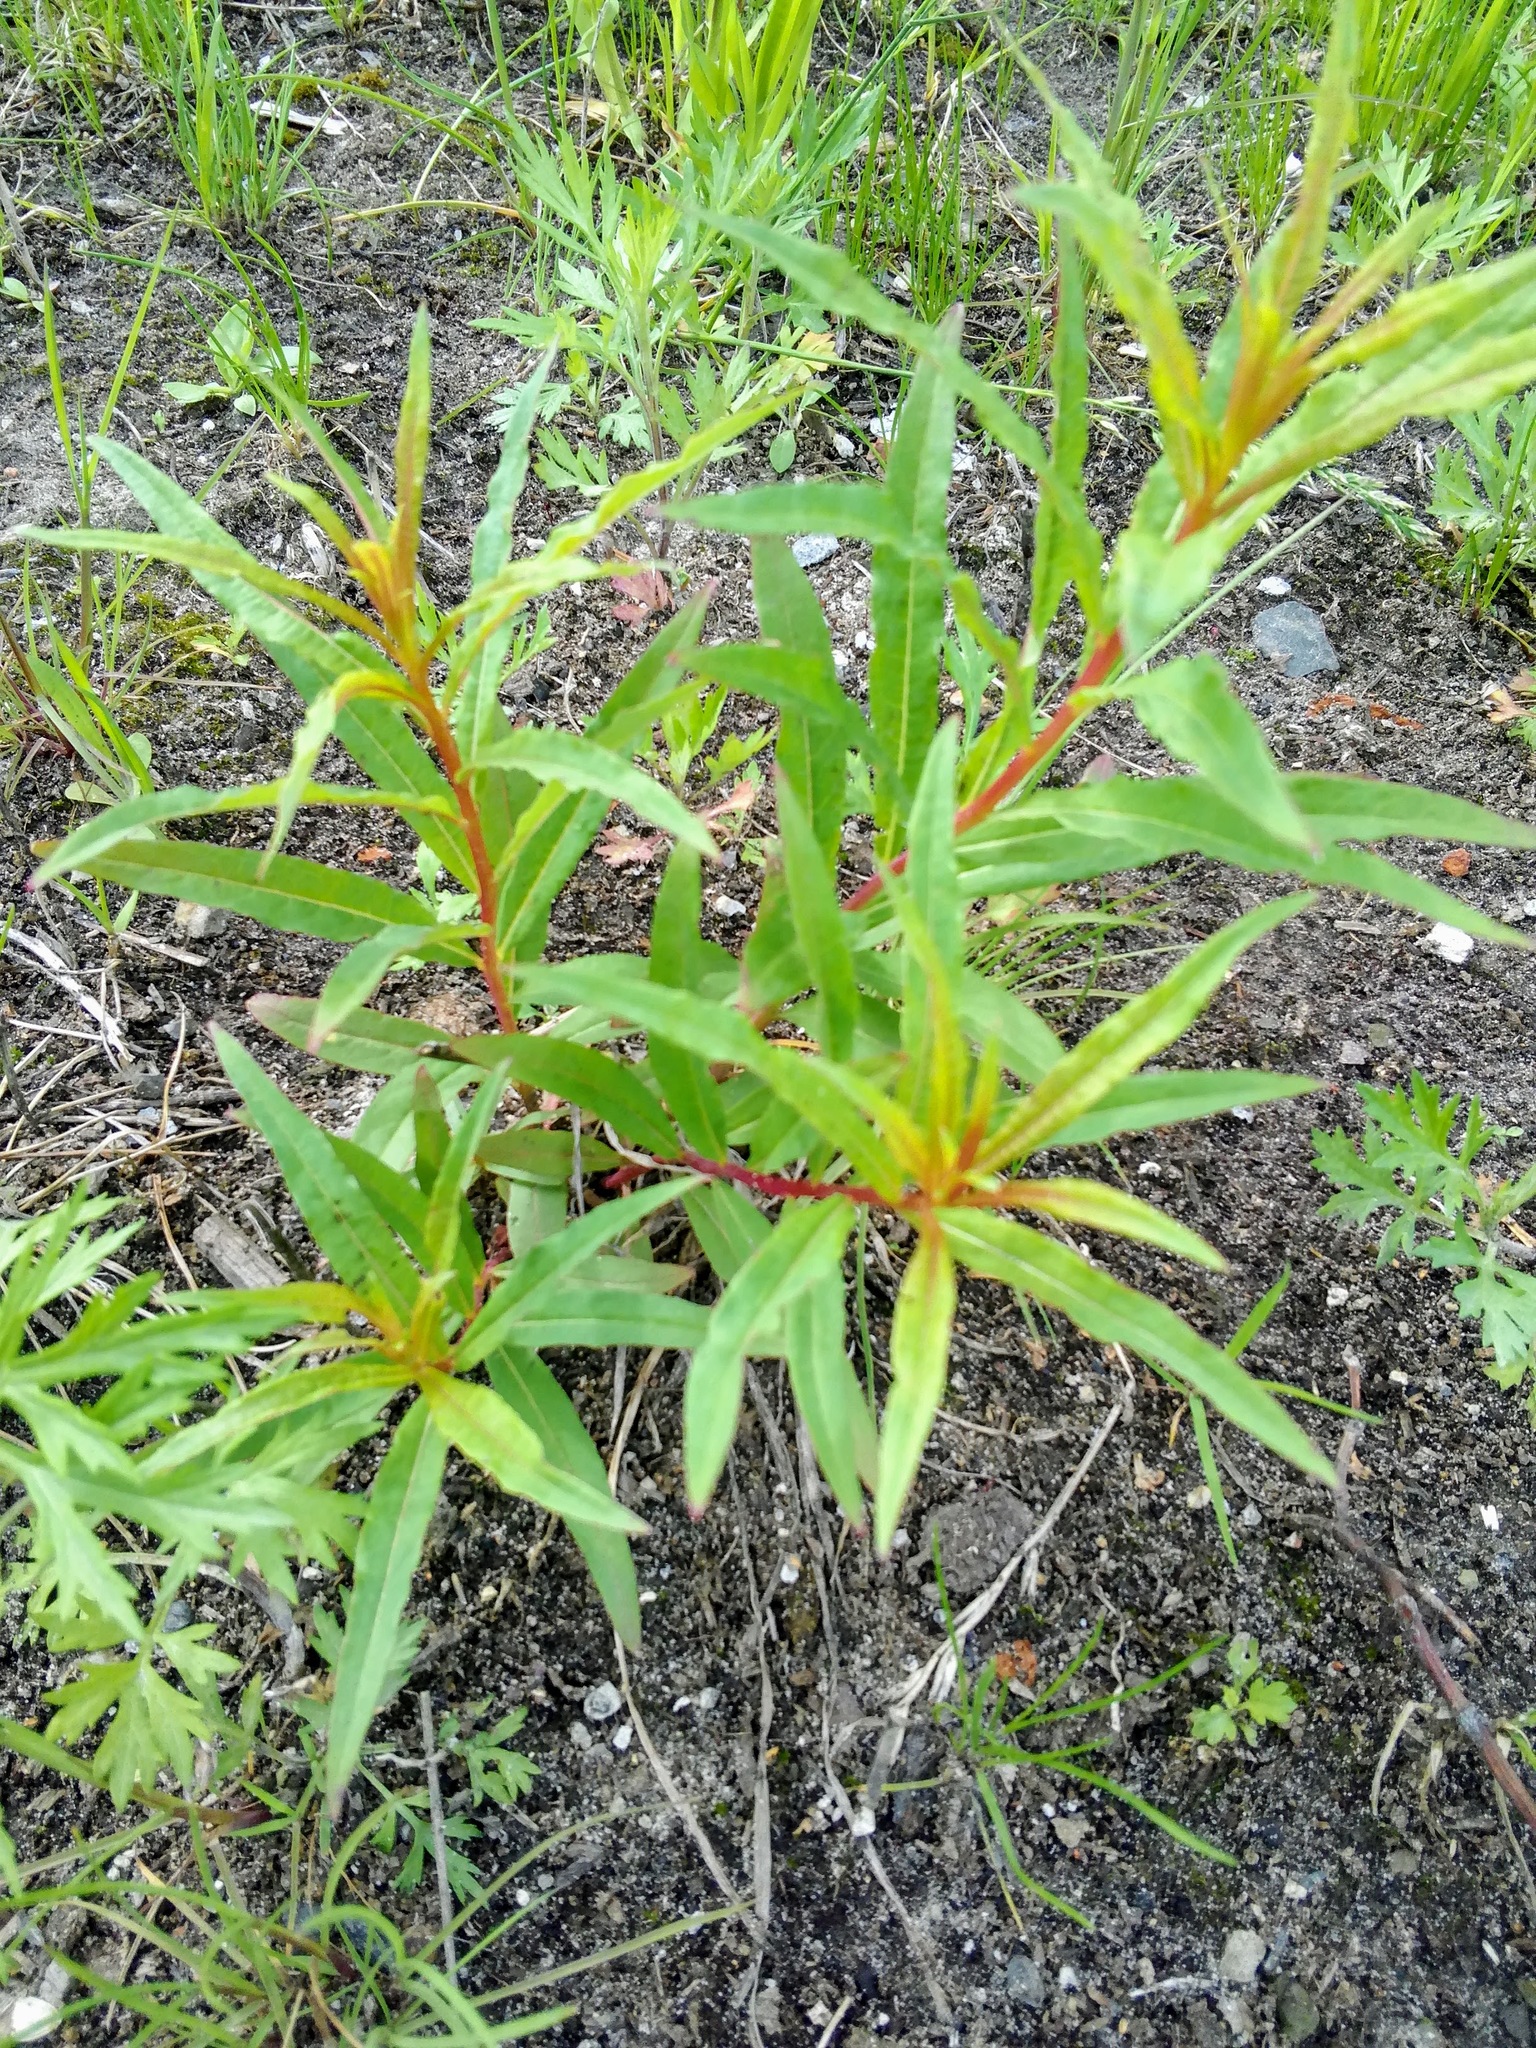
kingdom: Plantae
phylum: Tracheophyta
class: Magnoliopsida
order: Myrtales
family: Onagraceae
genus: Chamaenerion
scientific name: Chamaenerion angustifolium
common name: Fireweed
